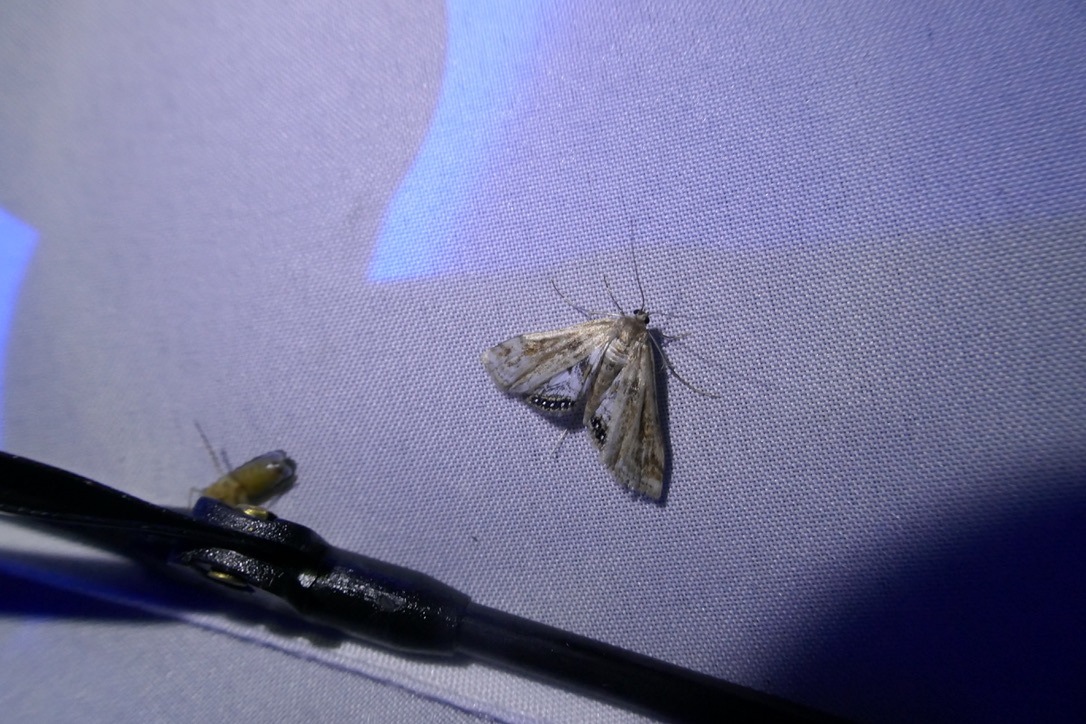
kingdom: Animalia
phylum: Arthropoda
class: Insecta
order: Lepidoptera
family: Crambidae
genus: Cataclysta
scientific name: Cataclysta lemnata
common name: Small china-mark
